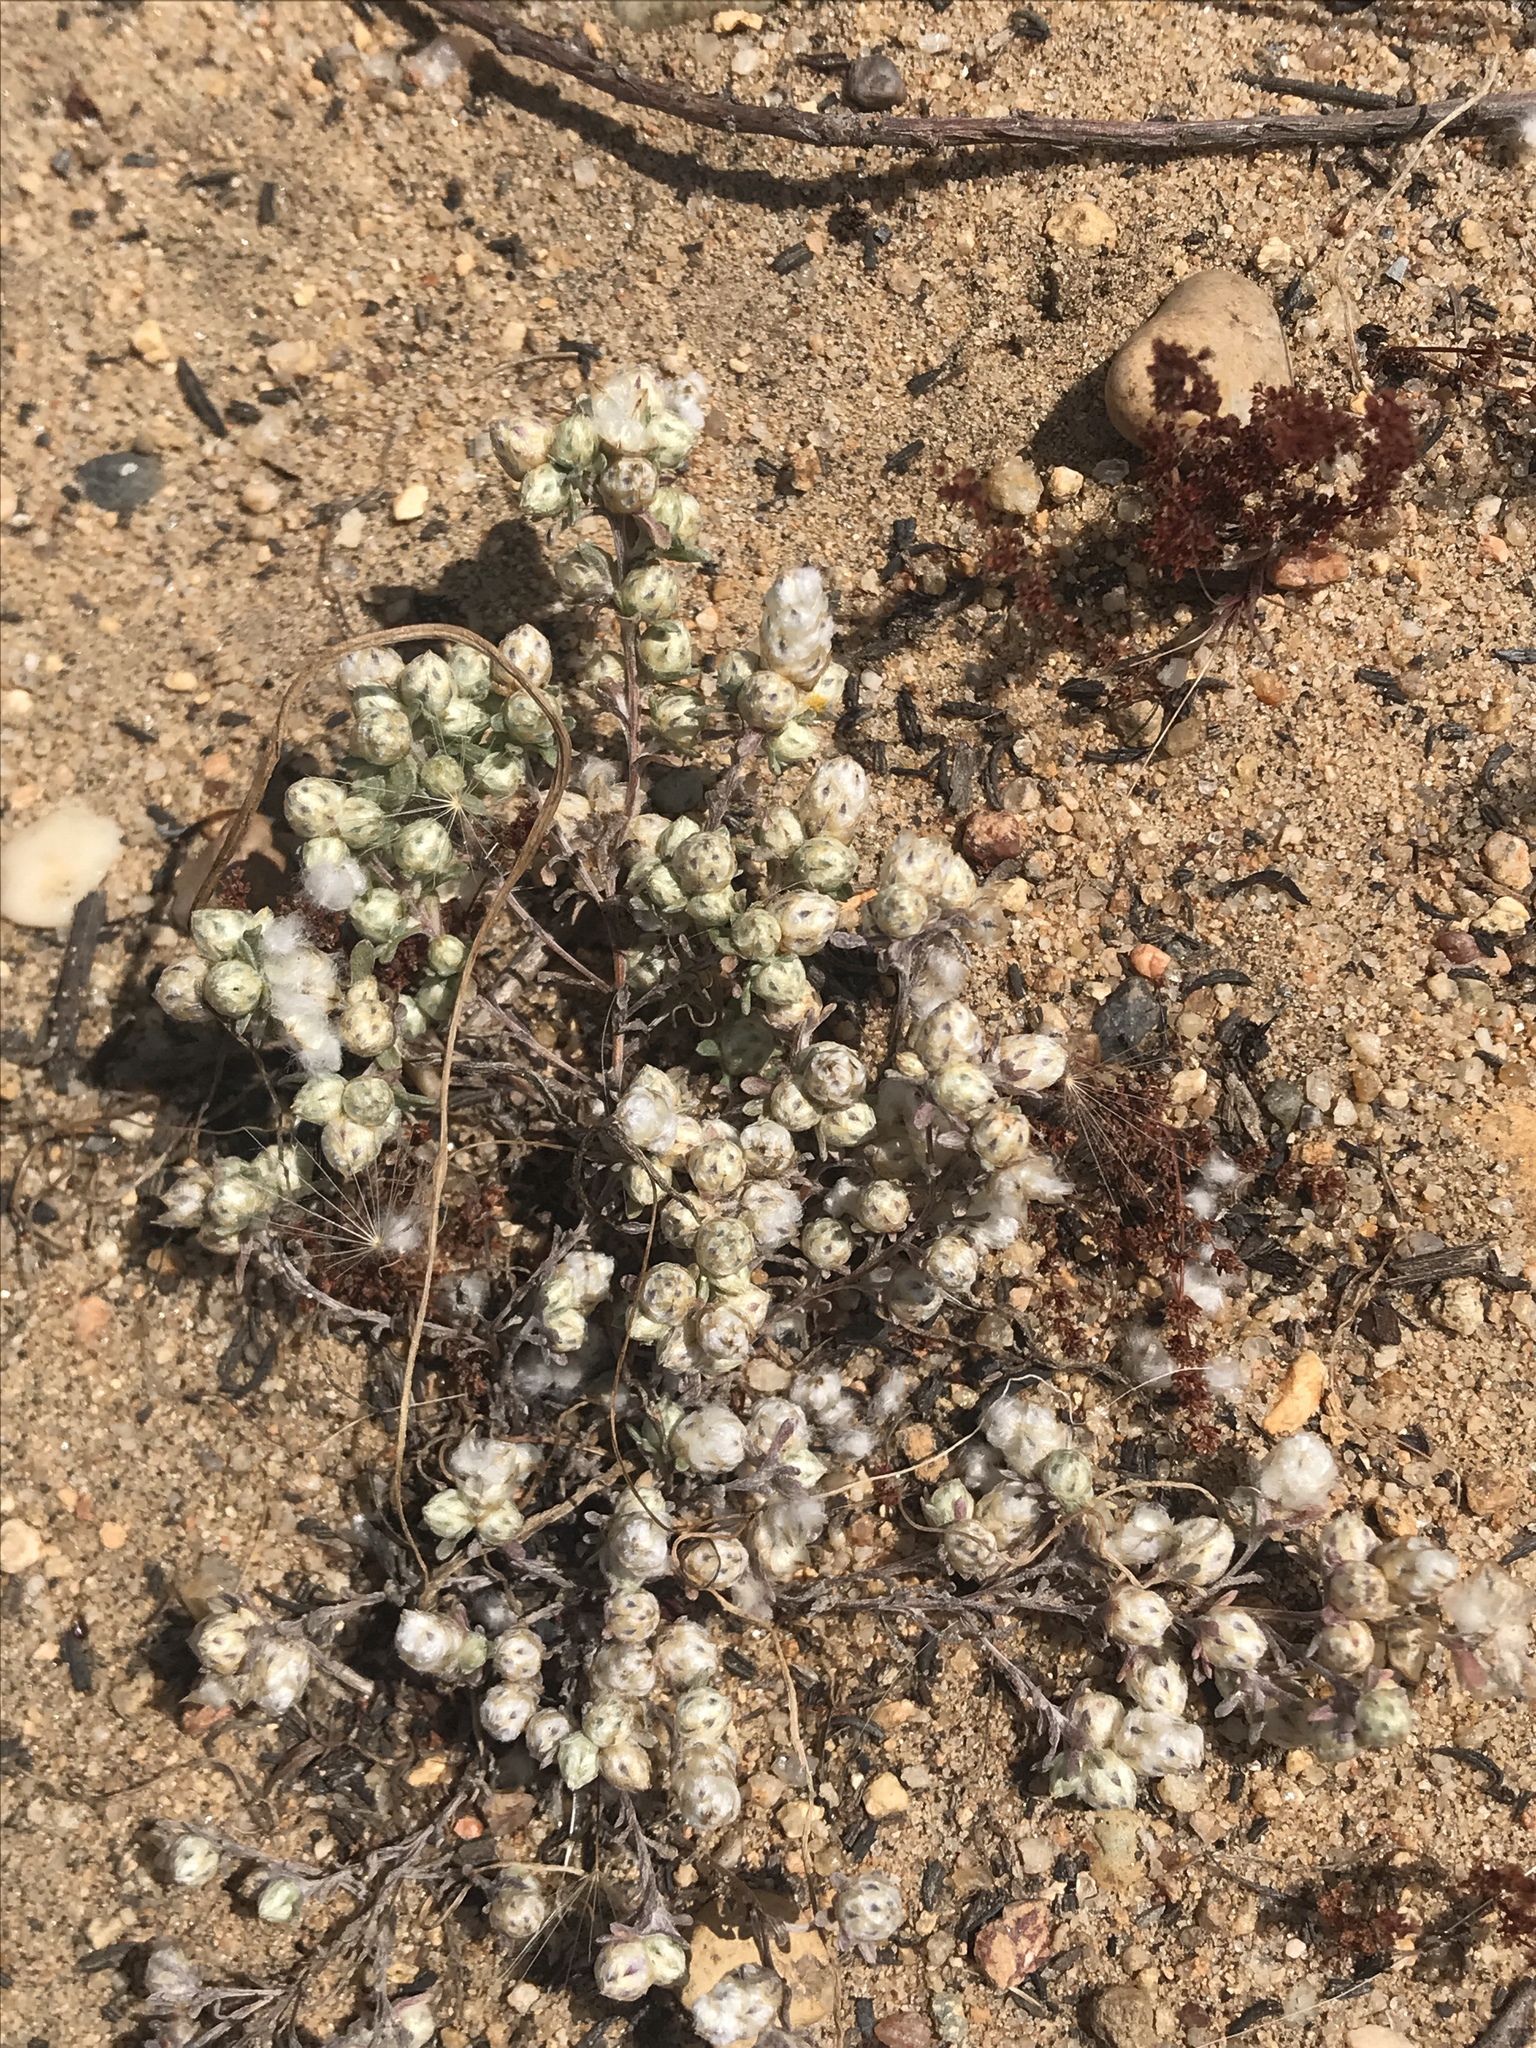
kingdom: Plantae
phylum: Tracheophyta
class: Magnoliopsida
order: Asterales
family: Asteraceae
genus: Stylocline
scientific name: Stylocline gnaphaloides
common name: Everlasting nest-straw
